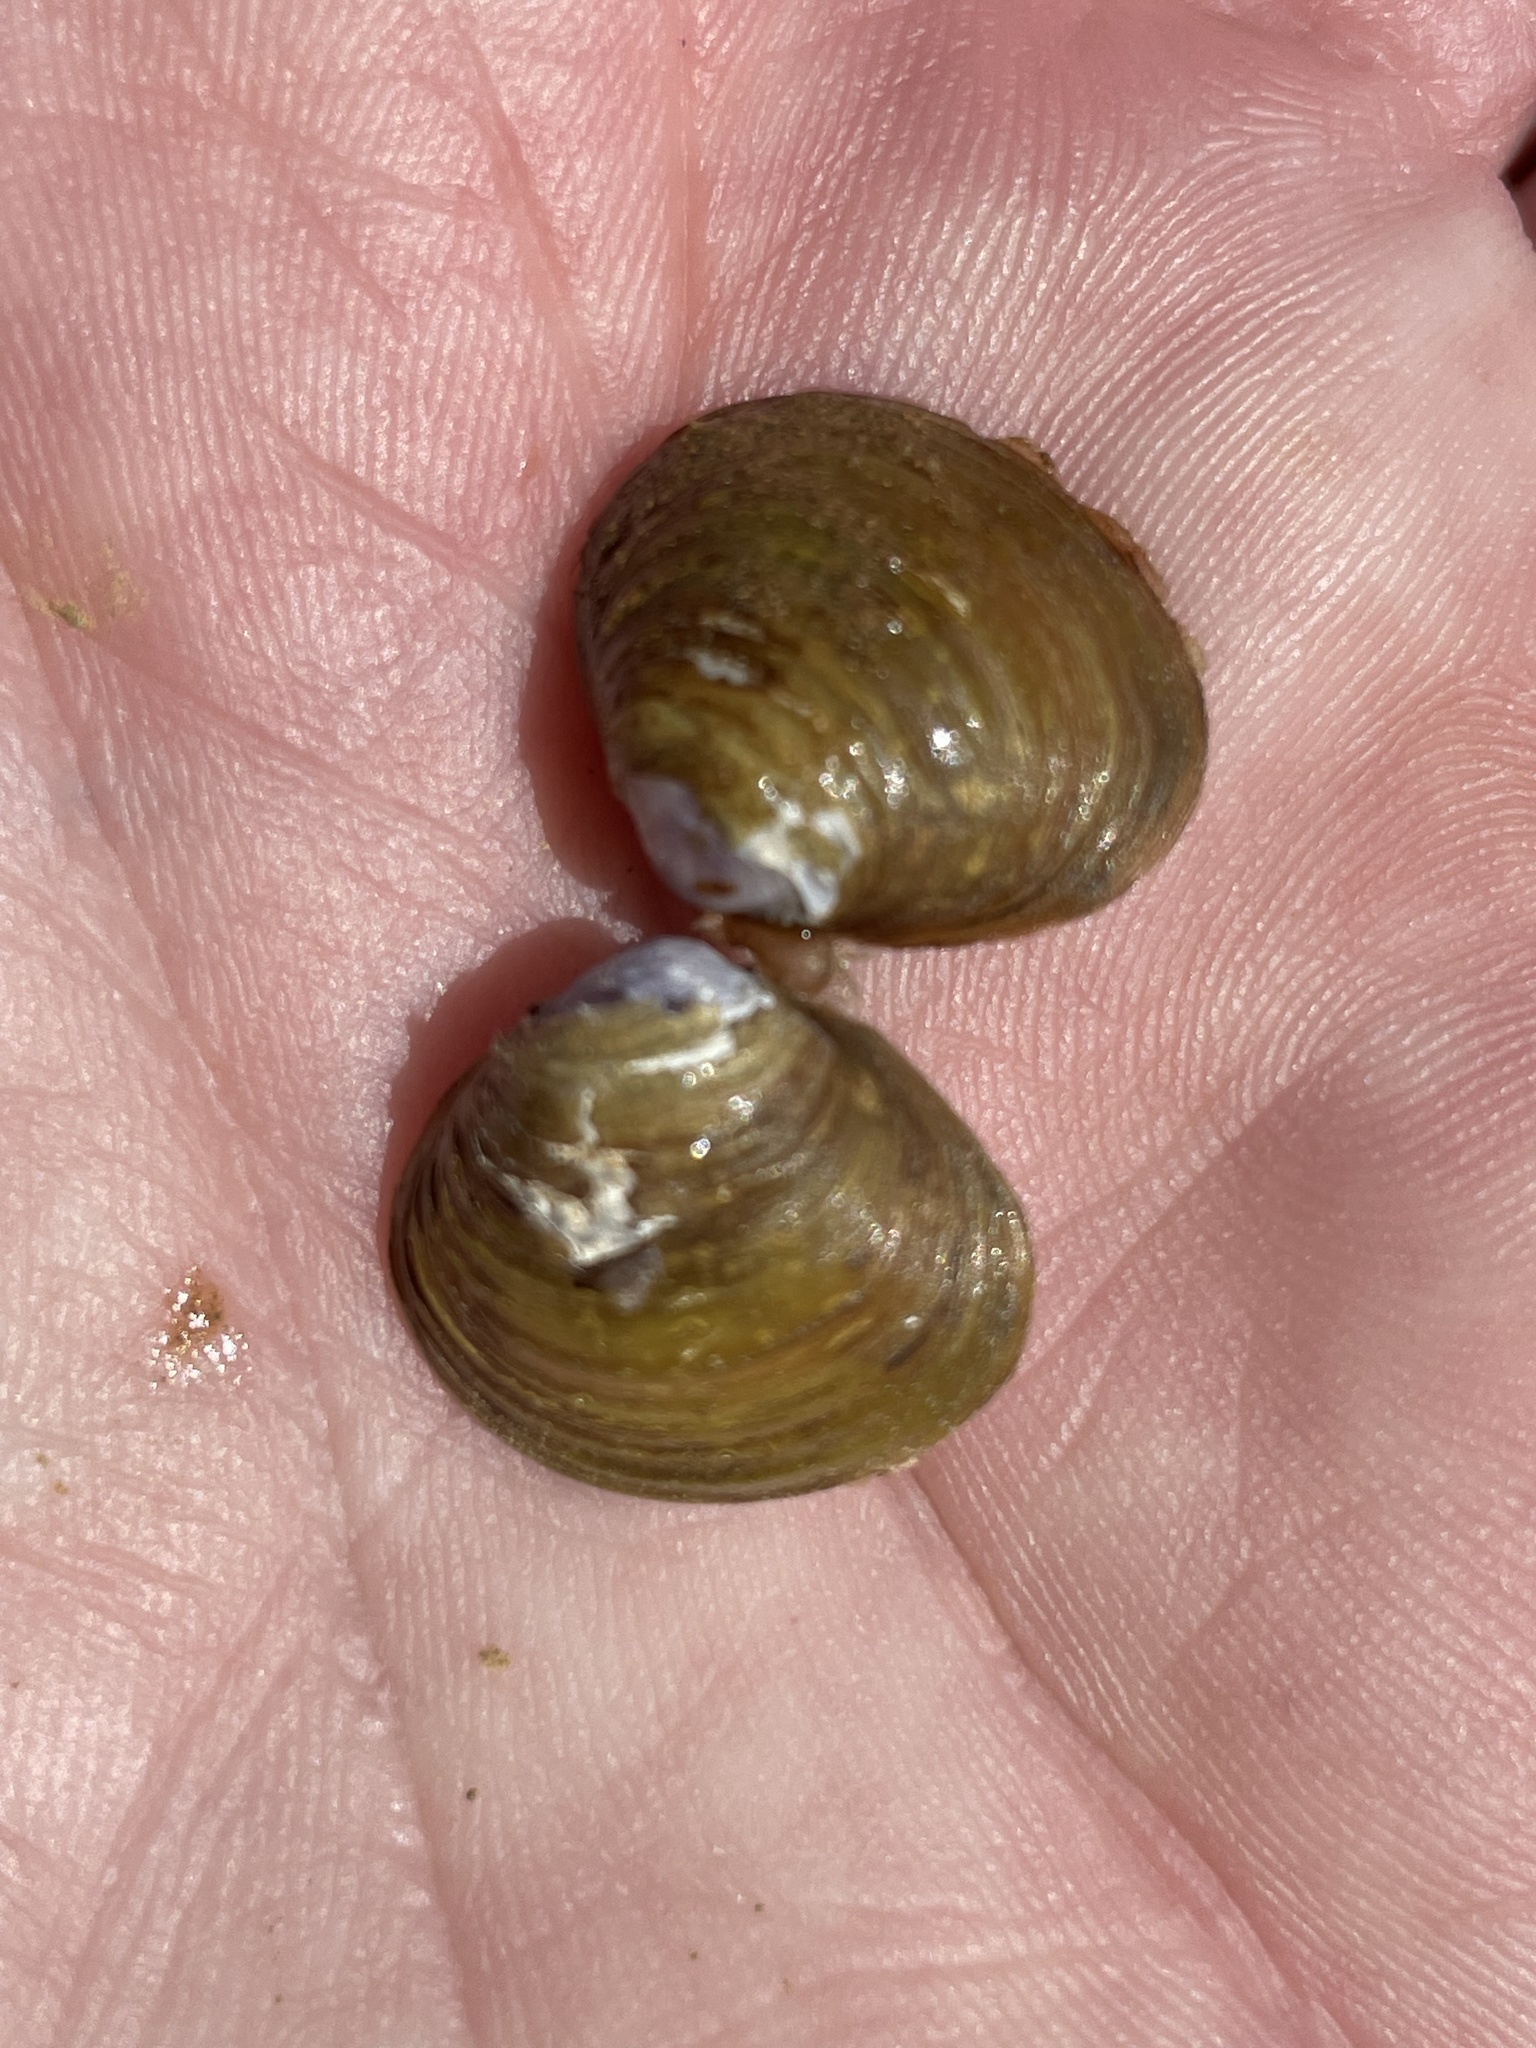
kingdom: Animalia
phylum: Mollusca
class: Bivalvia
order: Venerida
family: Cyrenidae
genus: Corbicula
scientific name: Corbicula fluminea
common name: Asian clam
